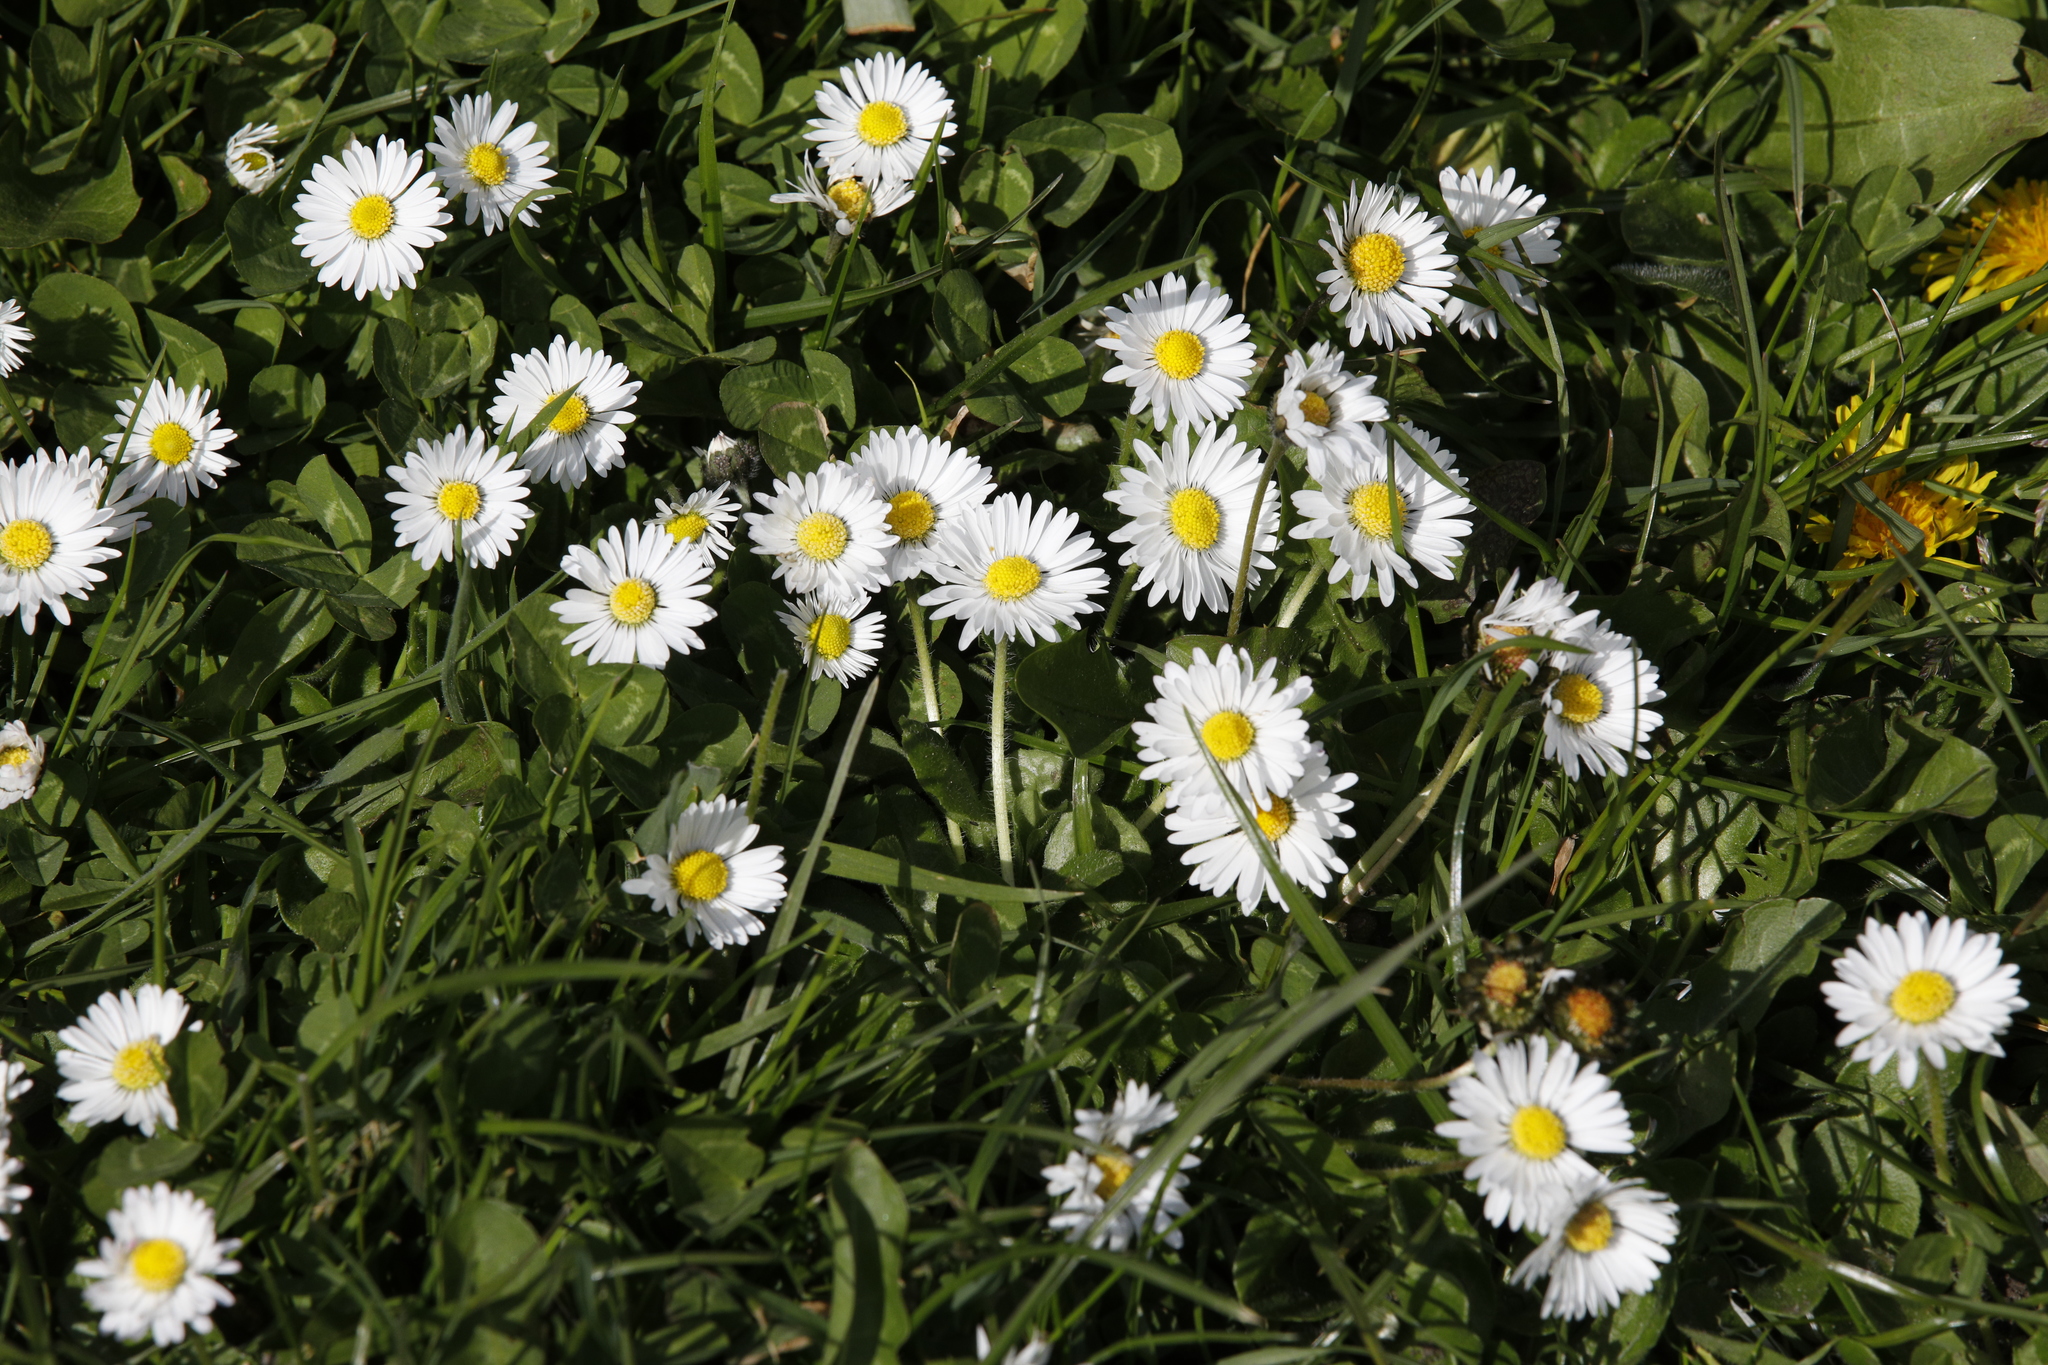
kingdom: Plantae
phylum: Tracheophyta
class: Magnoliopsida
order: Asterales
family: Asteraceae
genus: Bellis
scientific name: Bellis perennis
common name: Lawndaisy
